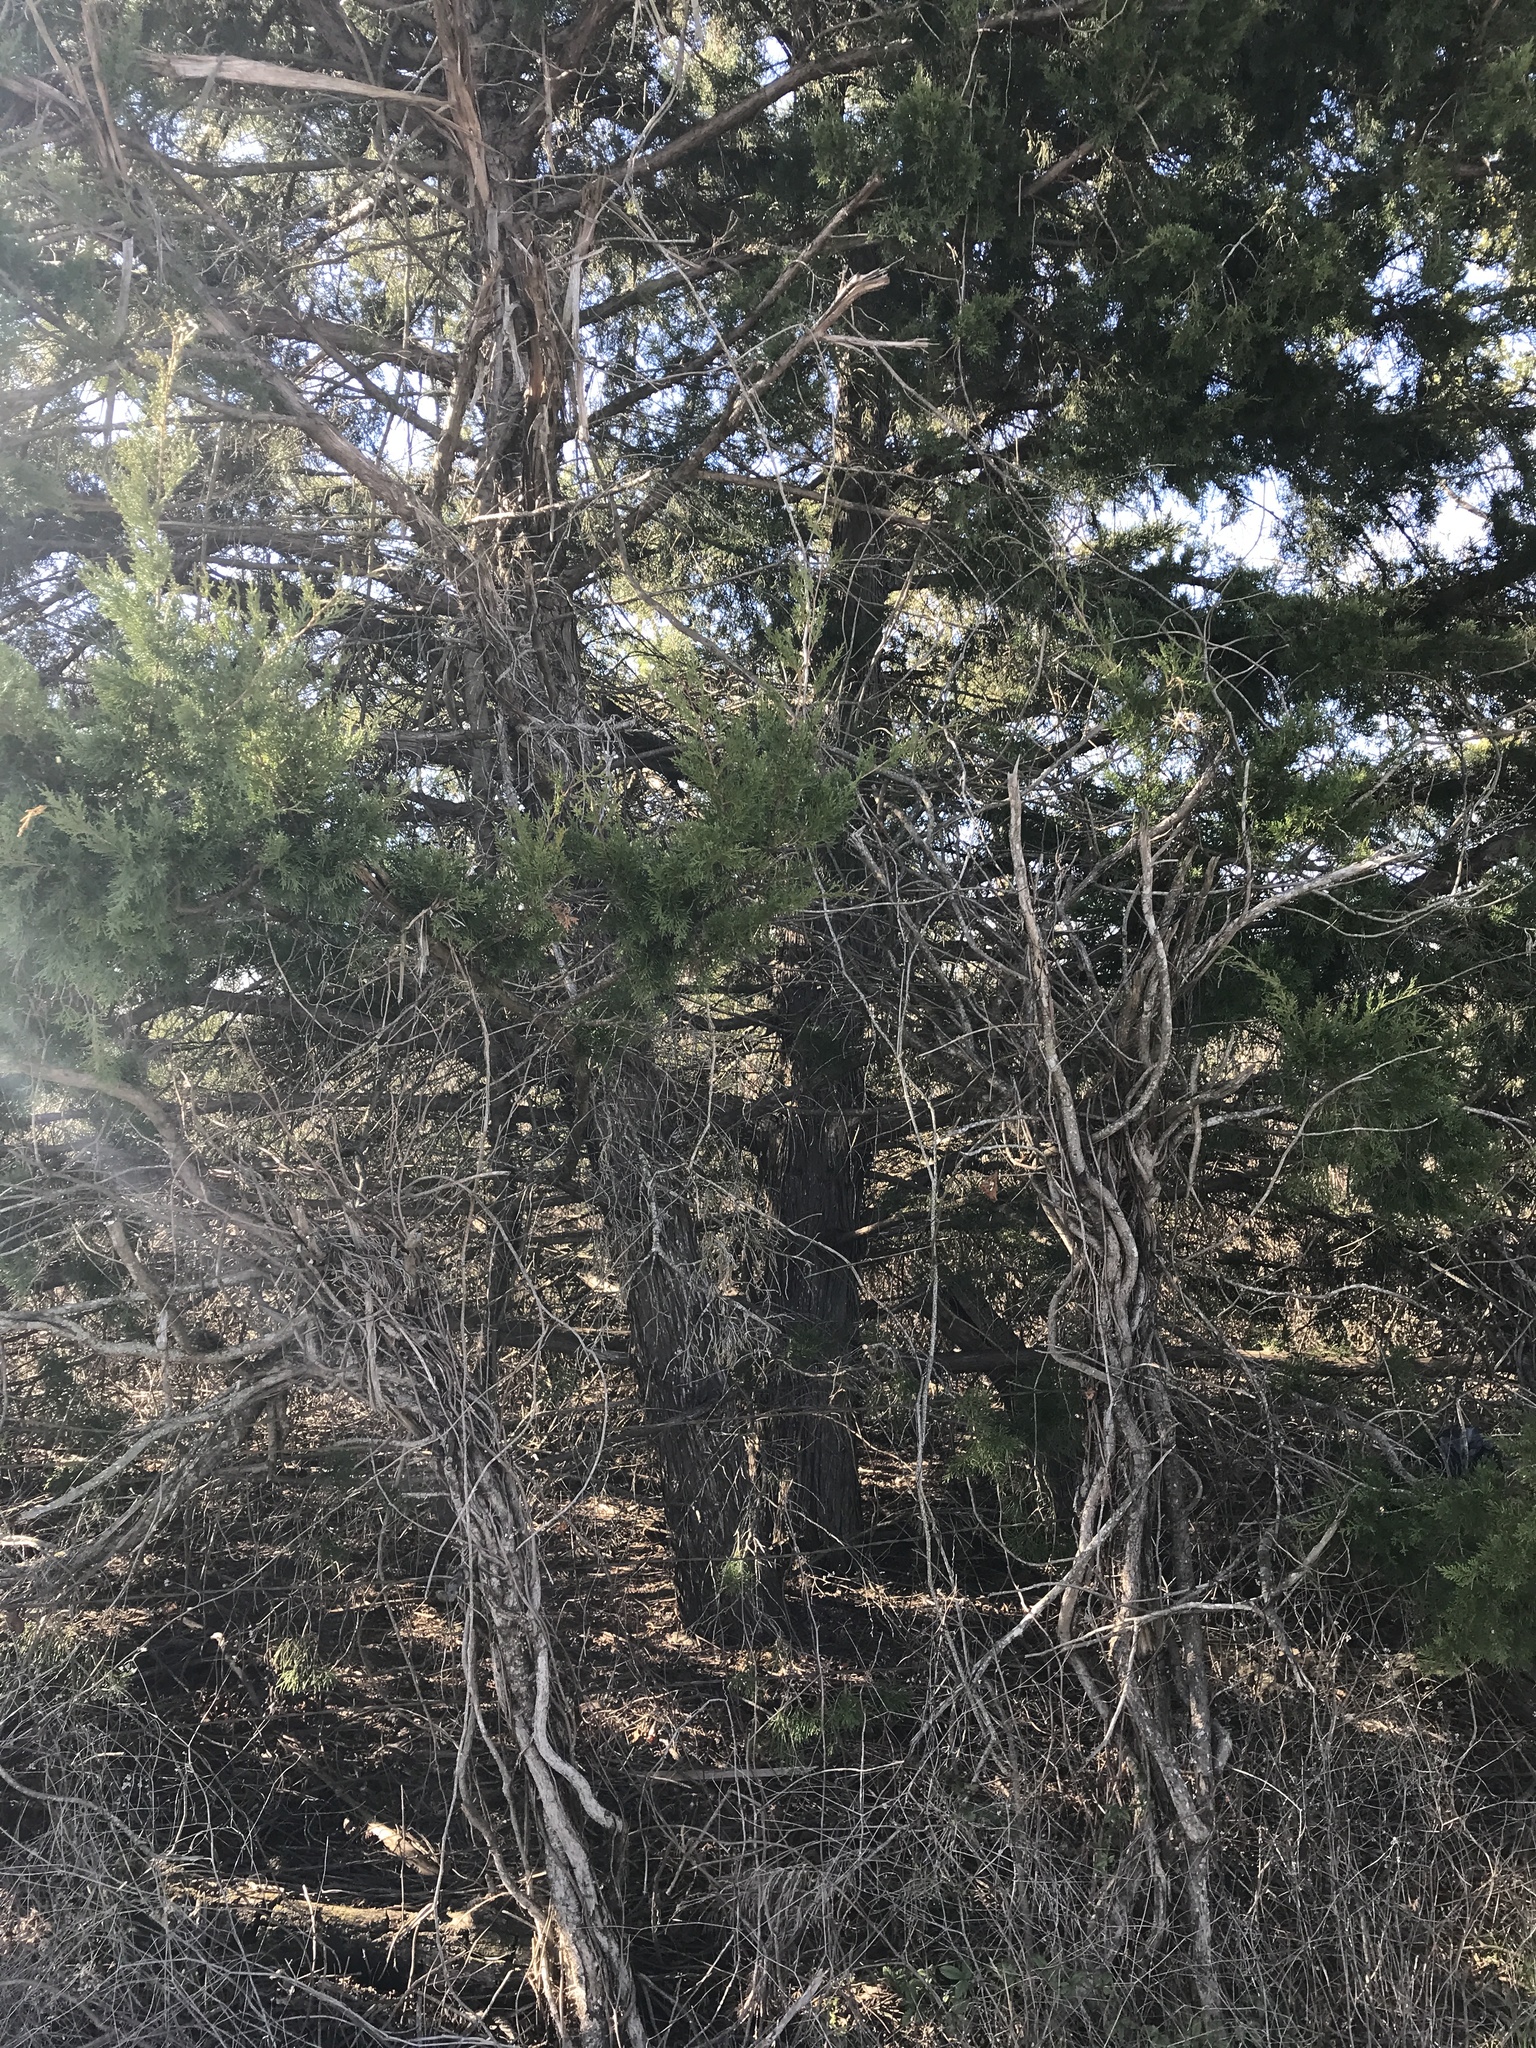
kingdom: Plantae
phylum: Tracheophyta
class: Pinopsida
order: Pinales
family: Cupressaceae
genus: Juniperus
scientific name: Juniperus virginiana
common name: Red juniper
